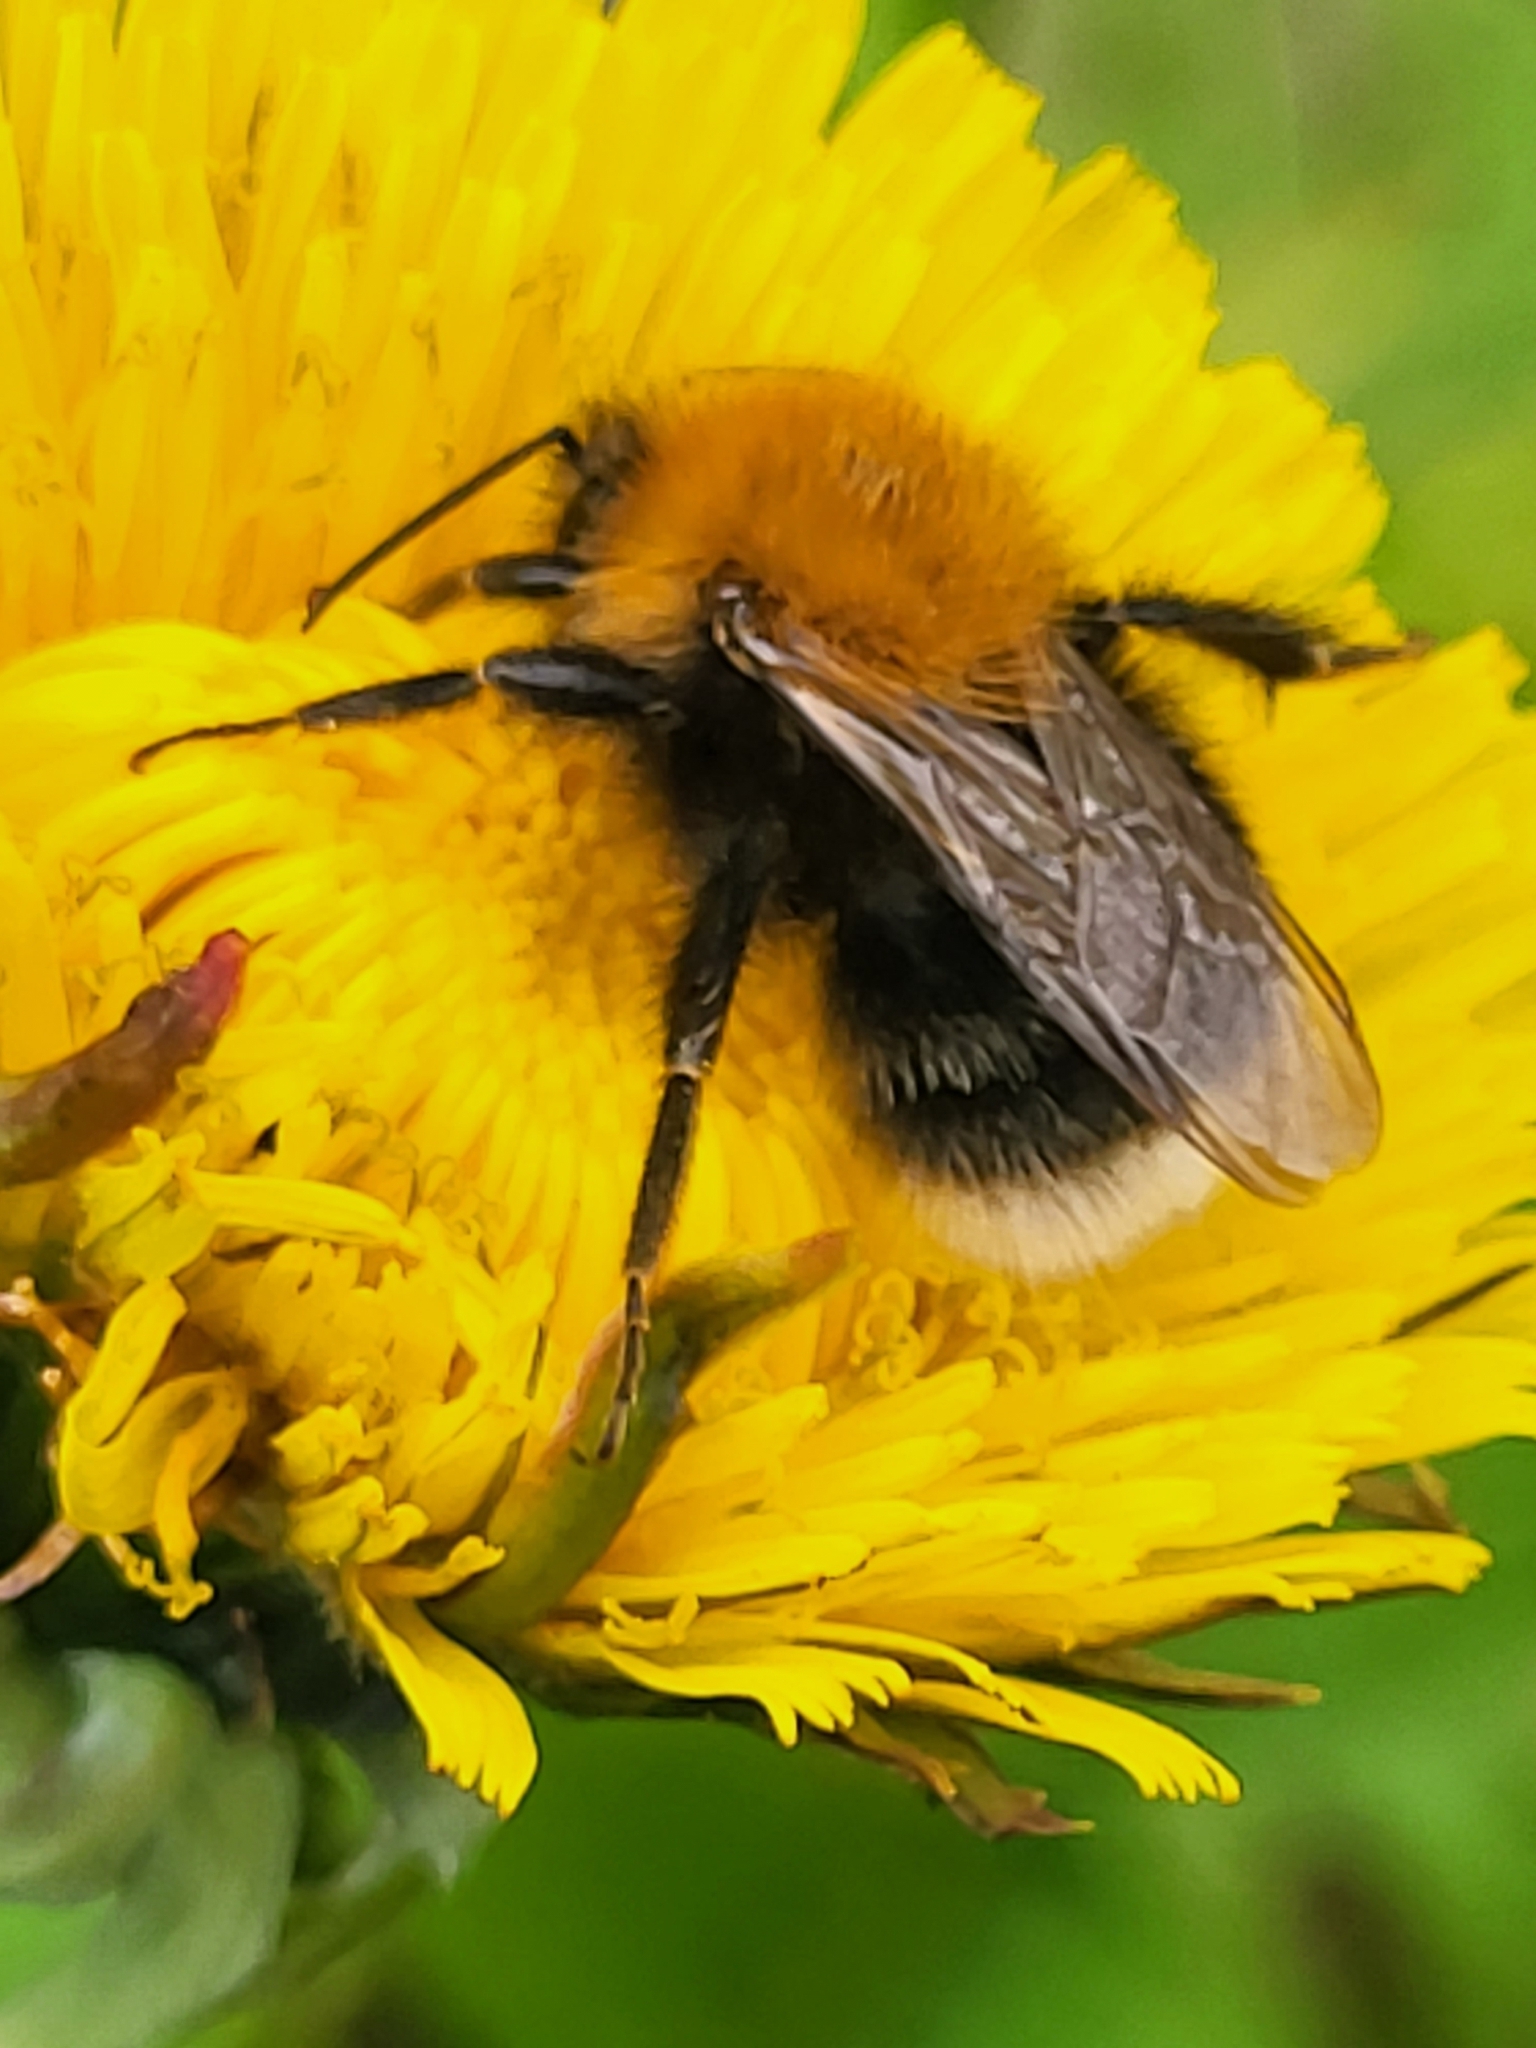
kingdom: Animalia
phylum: Arthropoda
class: Insecta
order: Hymenoptera
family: Apidae
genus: Bombus
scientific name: Bombus hypnorum
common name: New garden bumblebee
